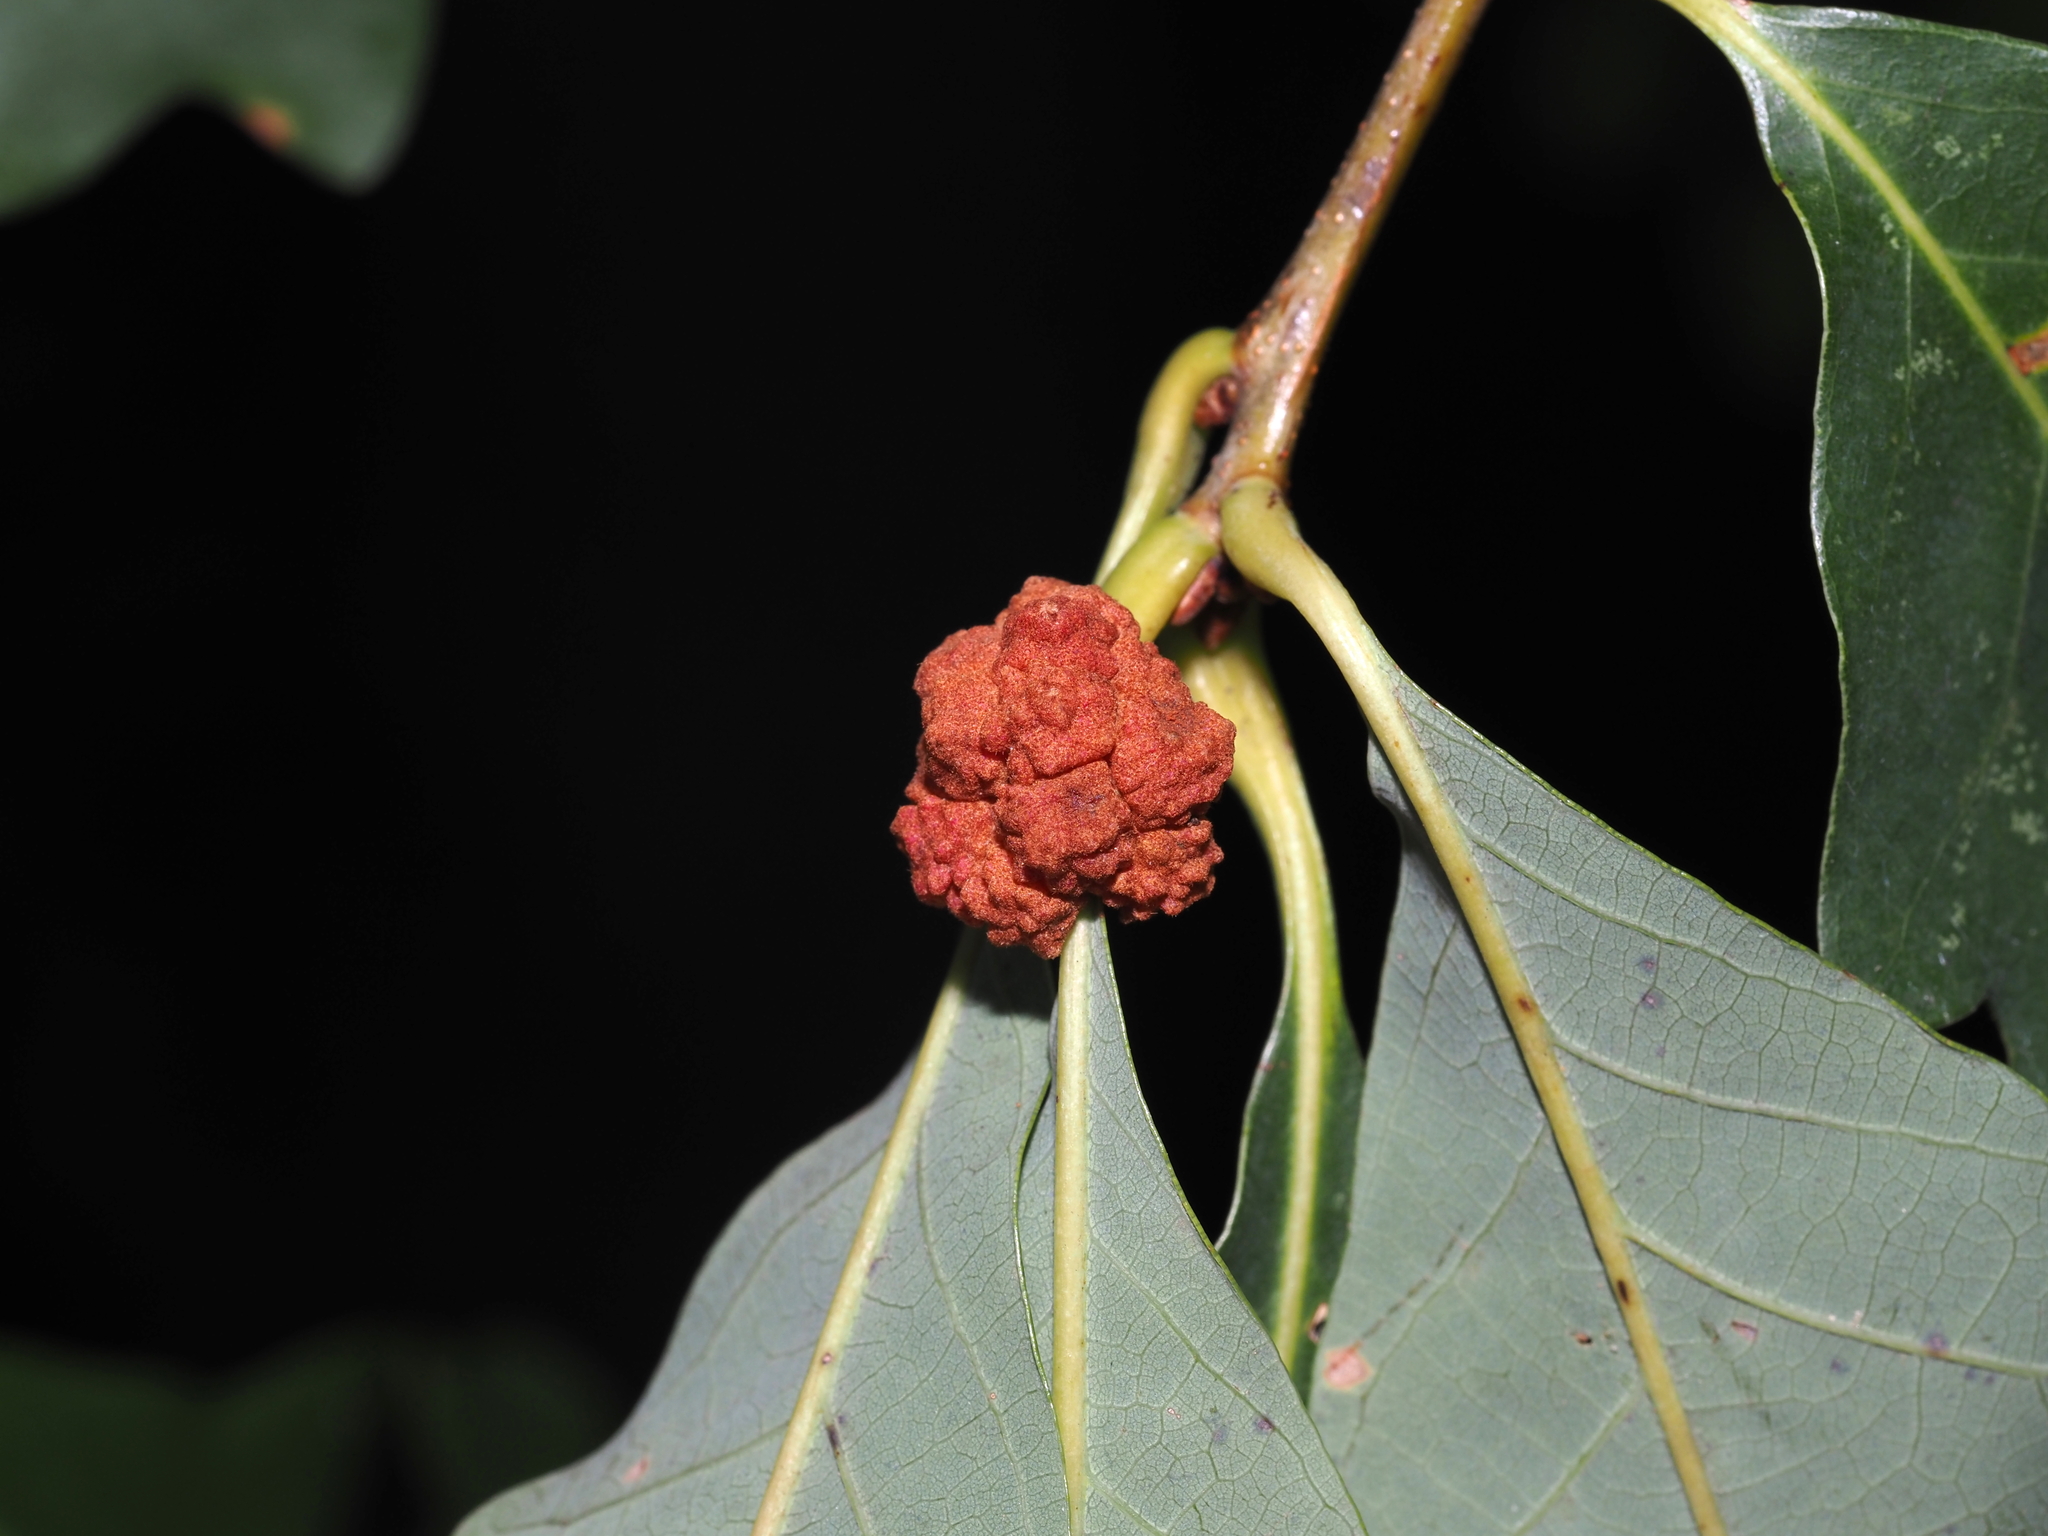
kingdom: Animalia
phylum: Arthropoda
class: Insecta
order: Hymenoptera
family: Cynipidae
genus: Andricus
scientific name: Andricus
